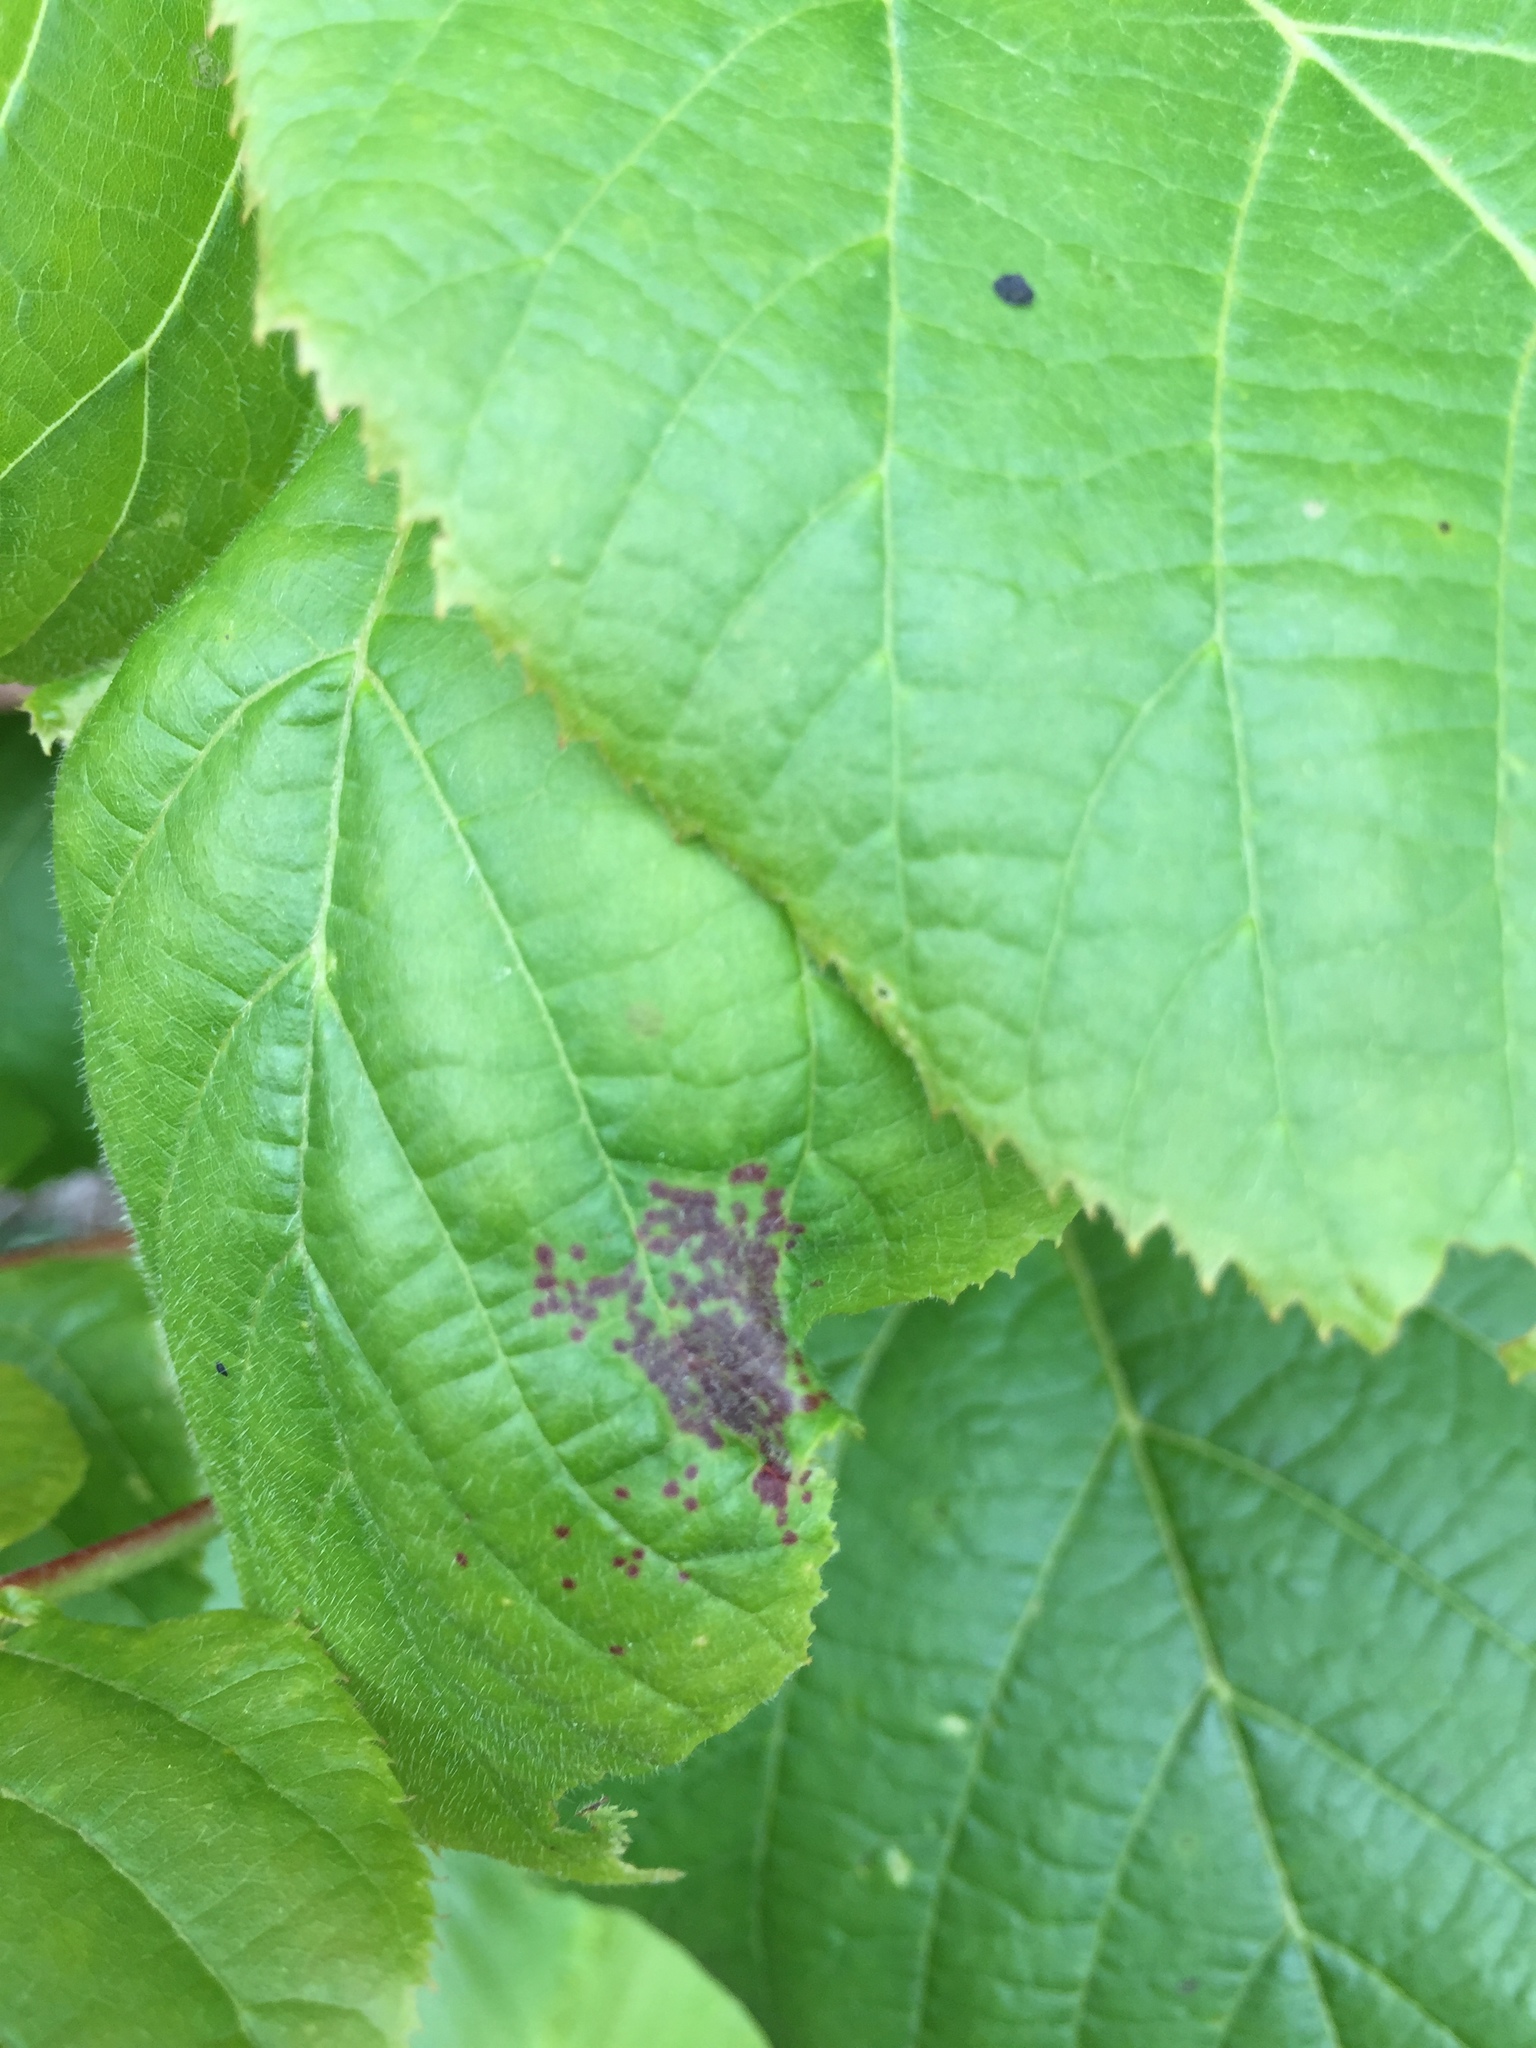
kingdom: Animalia
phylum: Arthropoda
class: Insecta
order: Diptera
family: Cecidomyiidae
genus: Dasineura
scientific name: Dasineura tiliae
